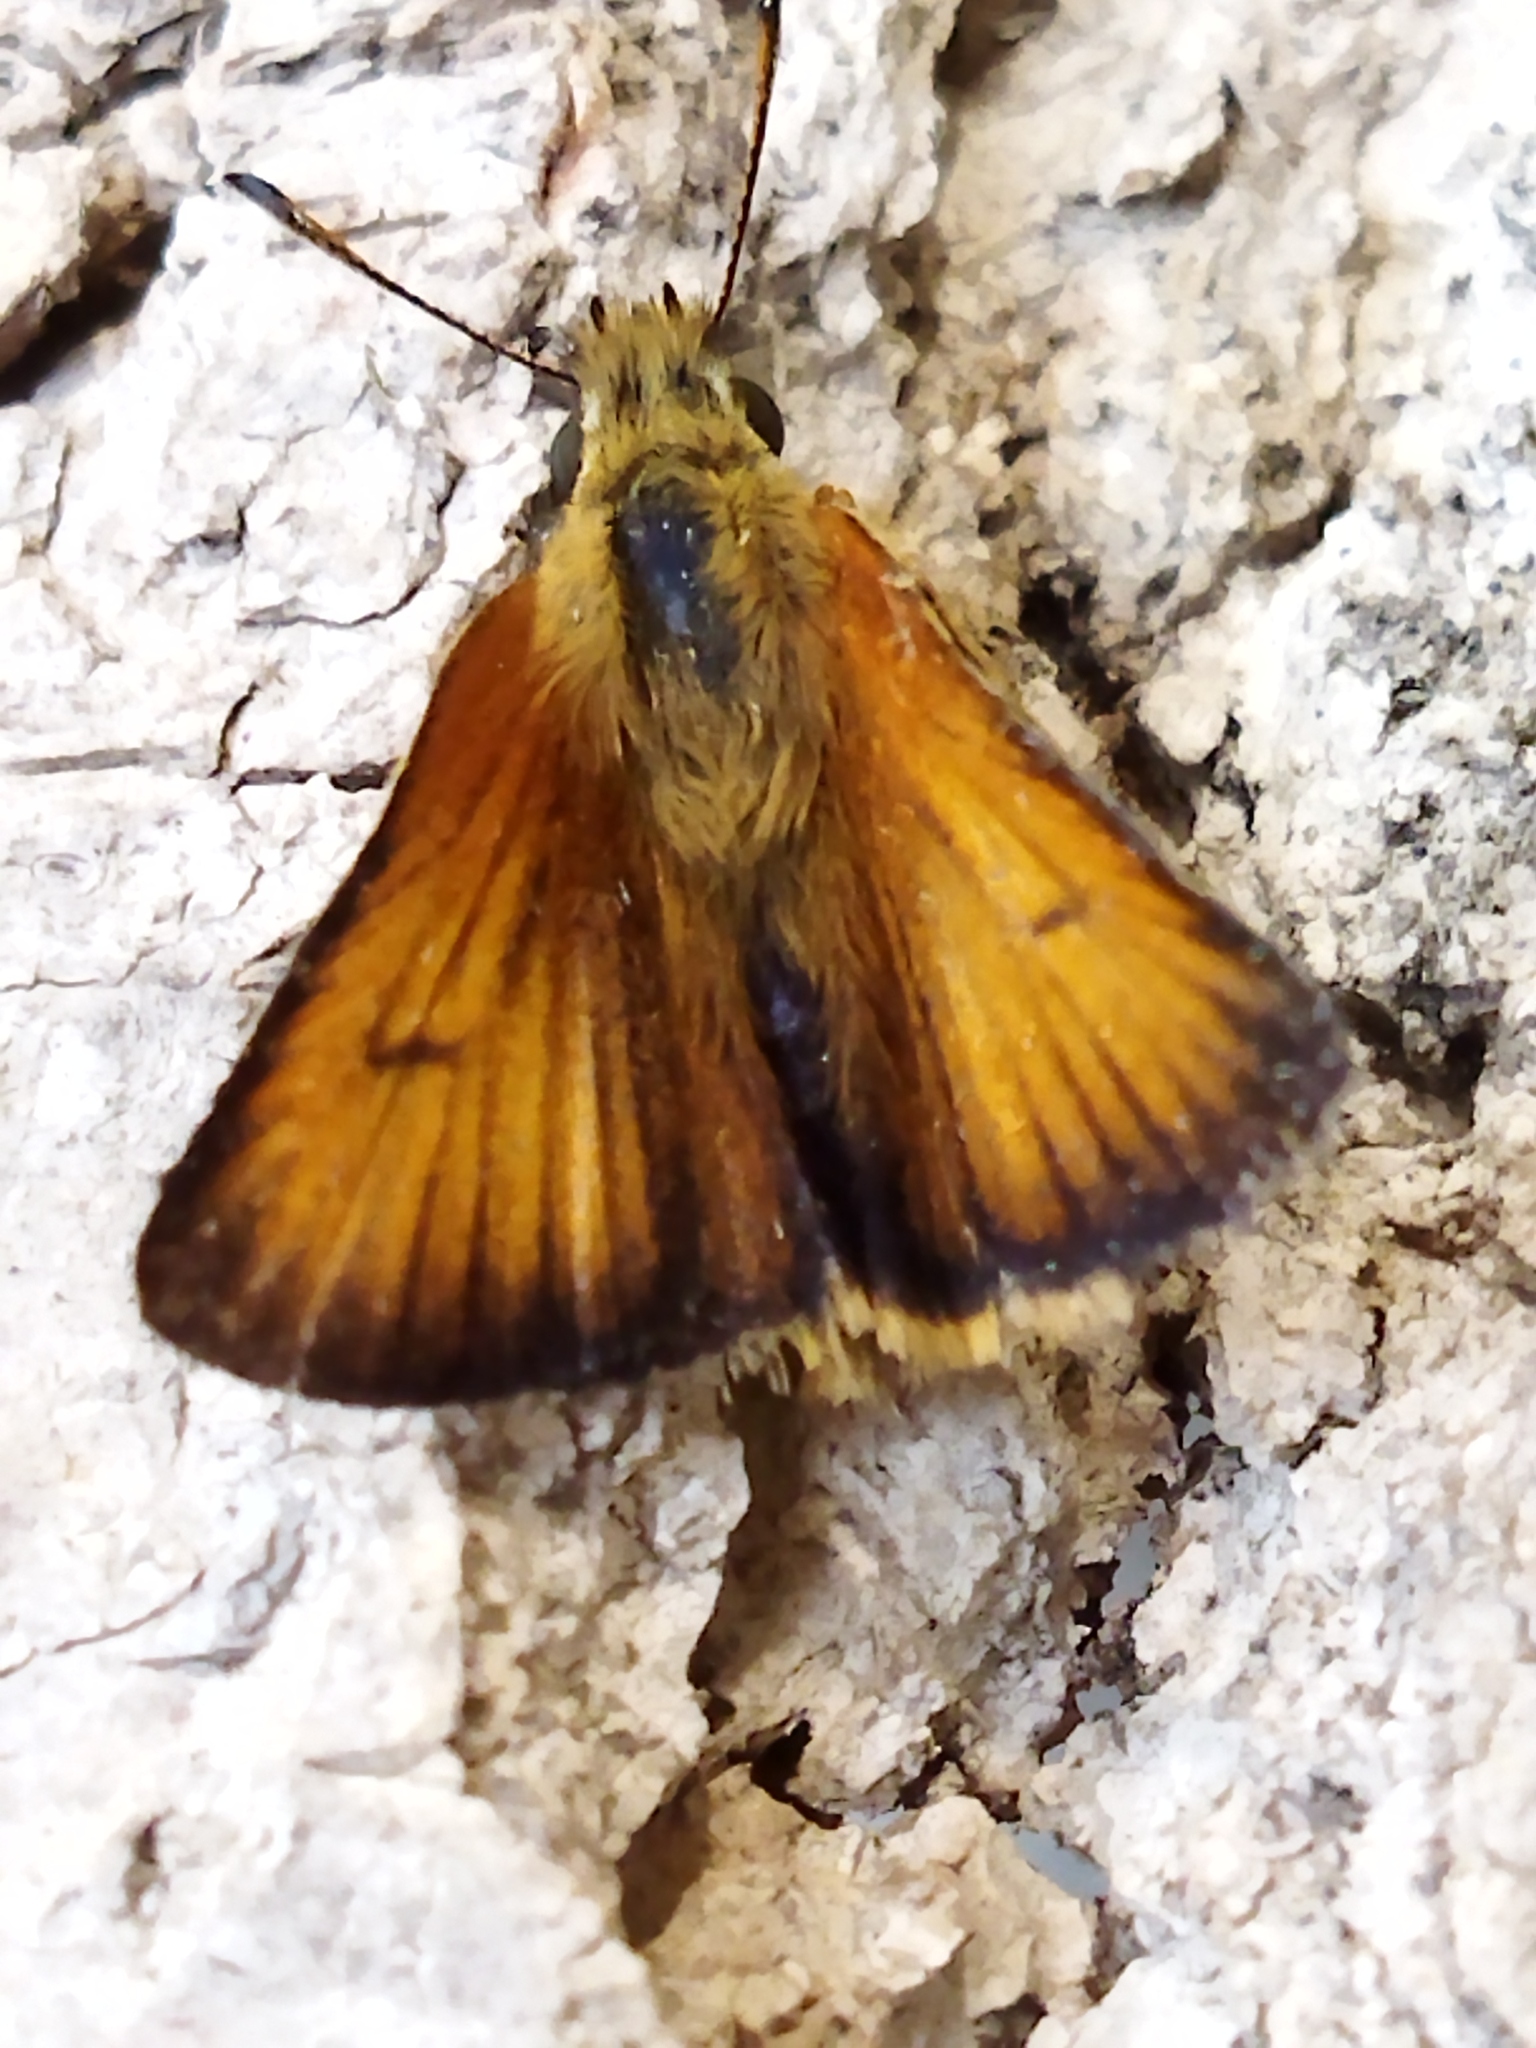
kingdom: Animalia
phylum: Arthropoda
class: Insecta
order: Lepidoptera
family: Hesperiidae
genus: Thymelicus
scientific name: Thymelicus lineola
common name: Essex skipper
